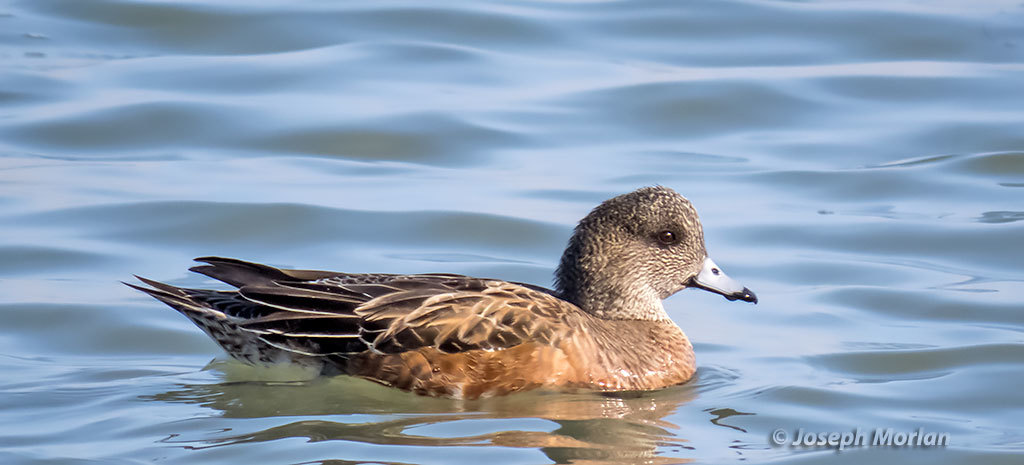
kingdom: Animalia
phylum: Chordata
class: Aves
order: Anseriformes
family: Anatidae
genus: Mareca
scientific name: Mareca americana
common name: American wigeon
